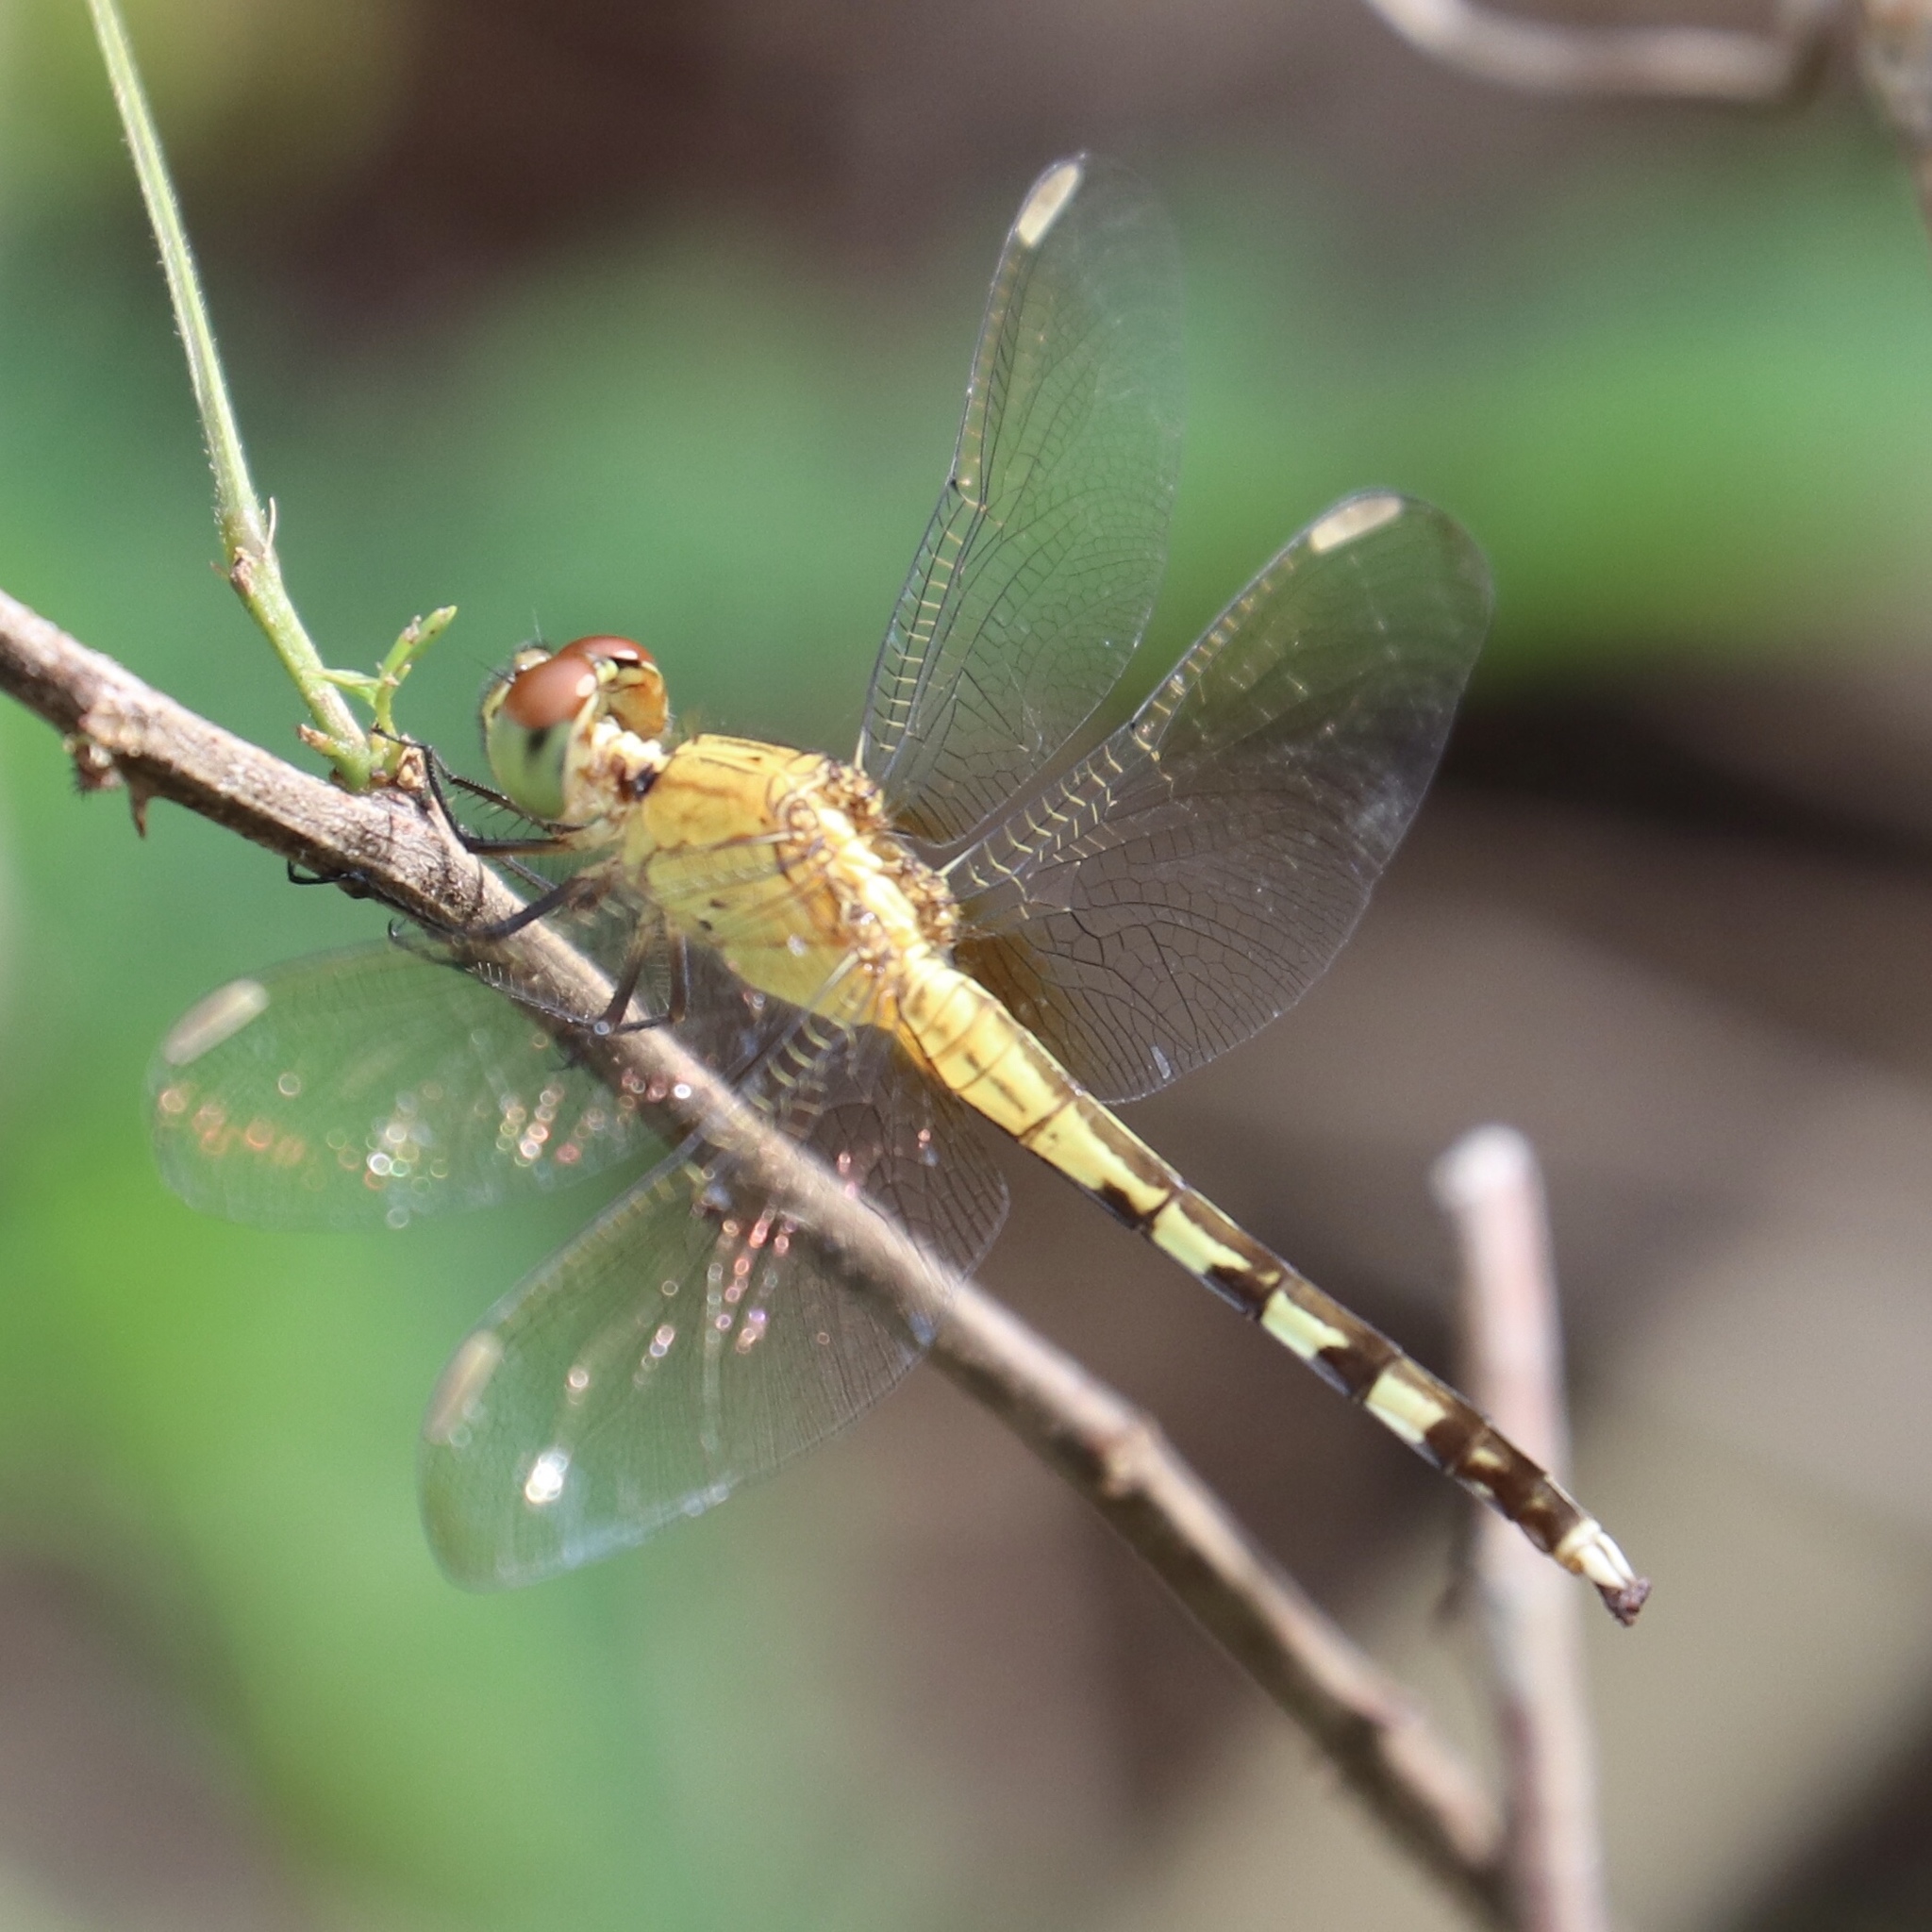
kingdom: Animalia
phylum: Arthropoda
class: Insecta
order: Odonata
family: Libellulidae
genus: Erythrodiplax
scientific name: Erythrodiplax umbrata
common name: Band-winged dragonlet
